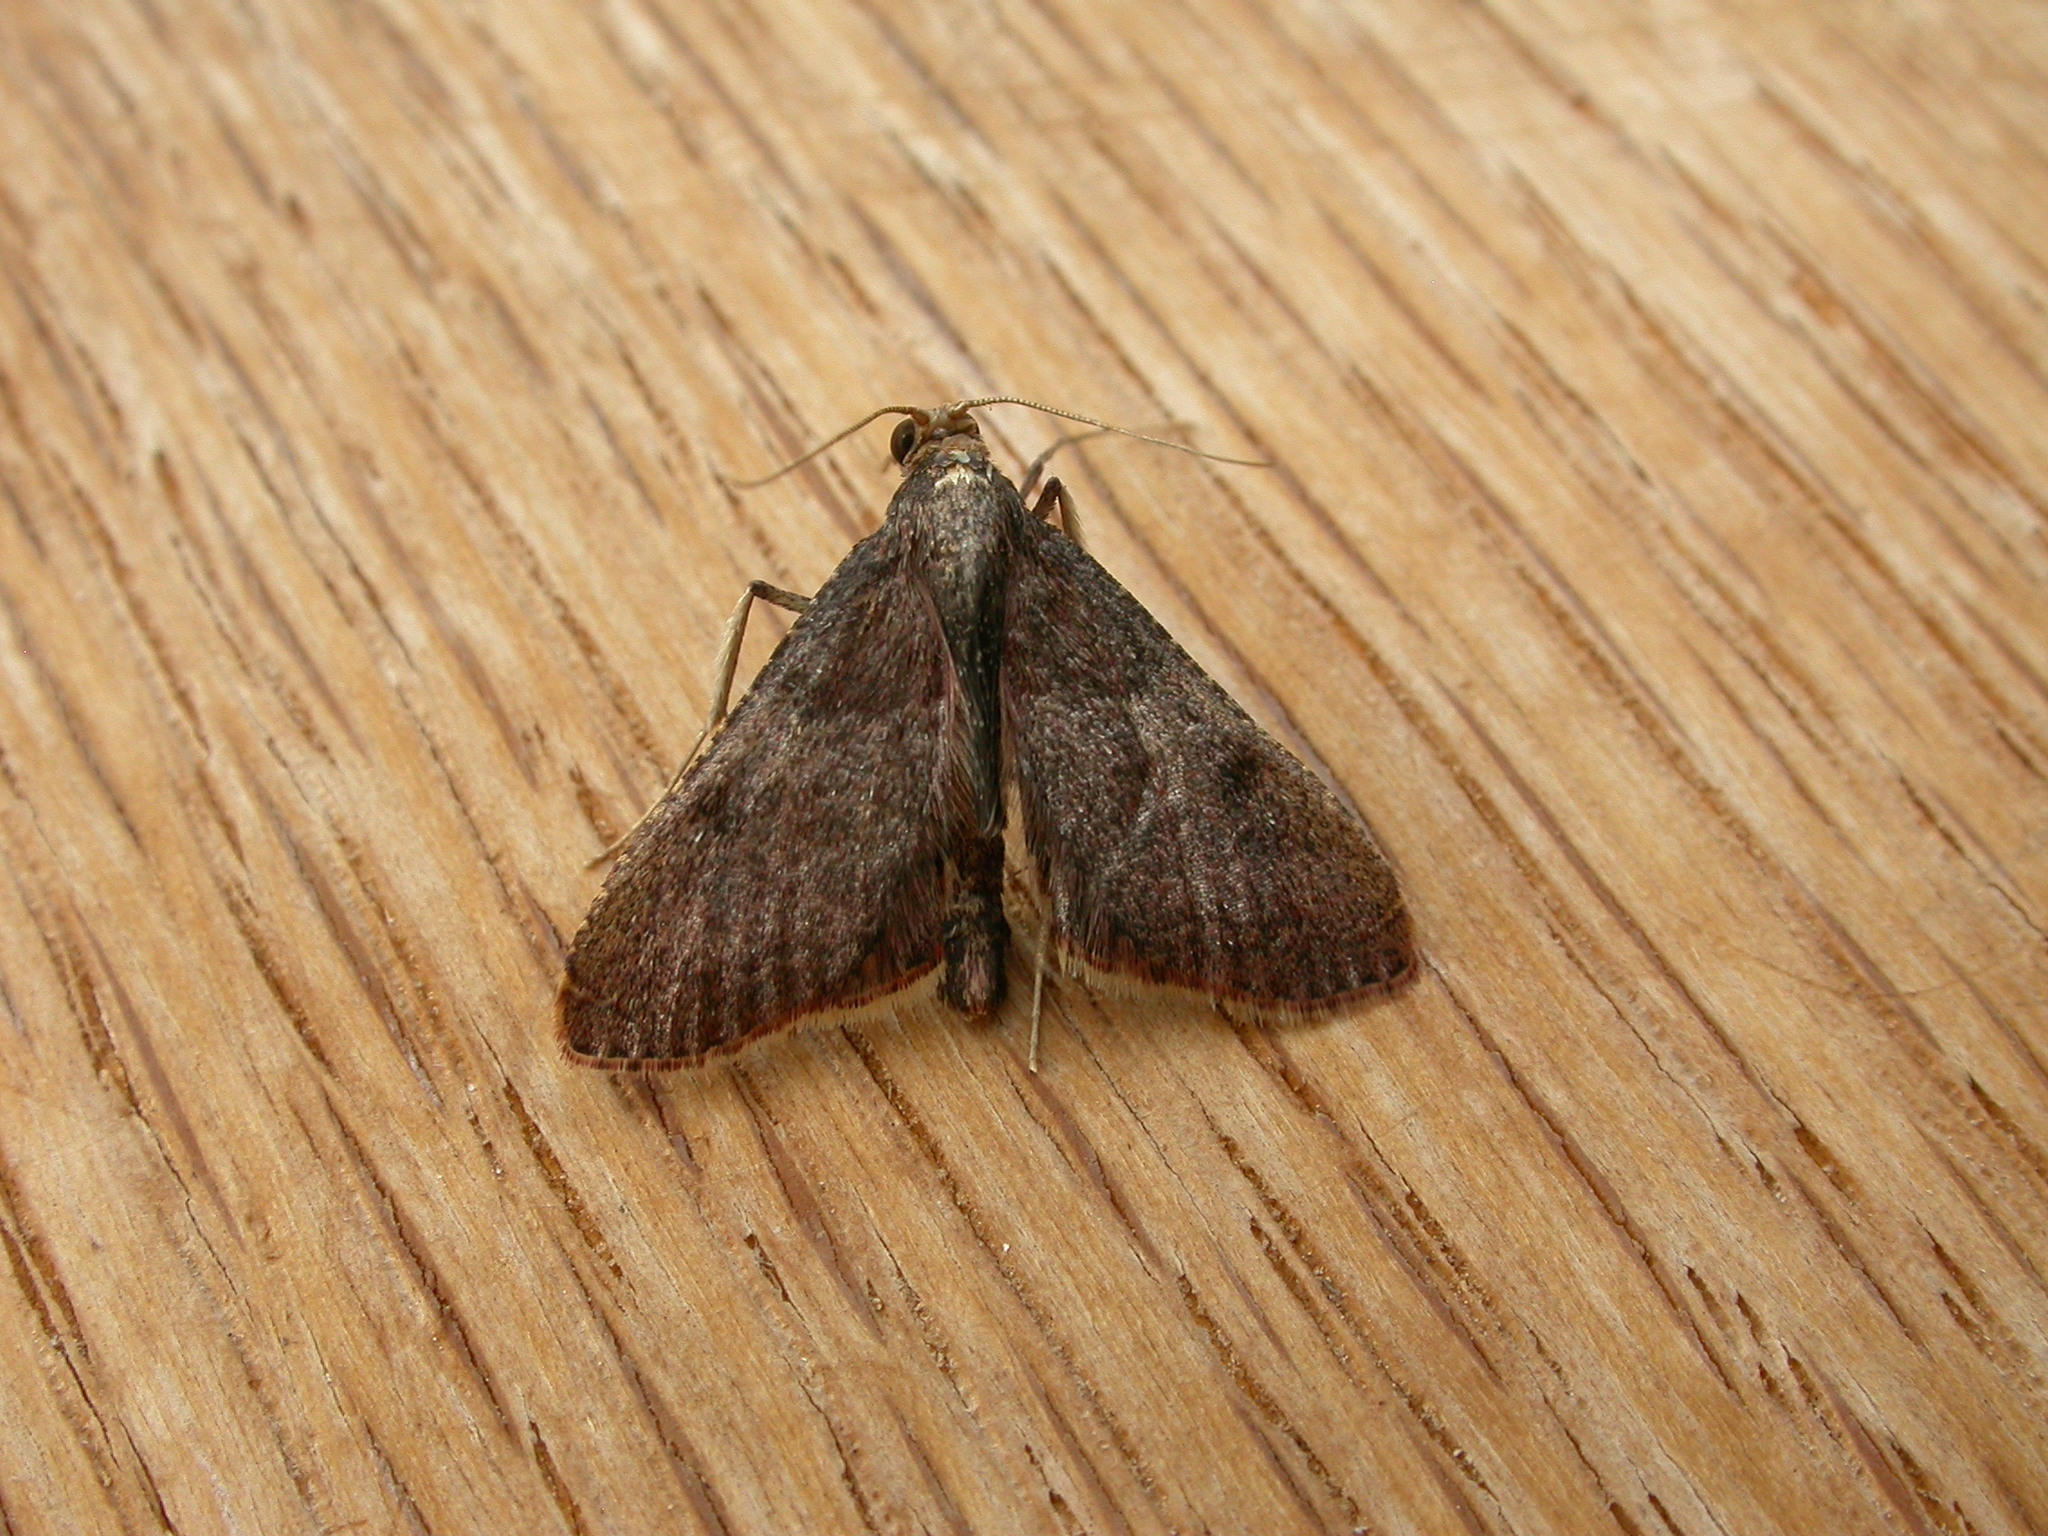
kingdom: Animalia
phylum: Arthropoda
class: Insecta
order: Lepidoptera
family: Pyralidae
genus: Endotricha
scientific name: Endotricha ignealis
